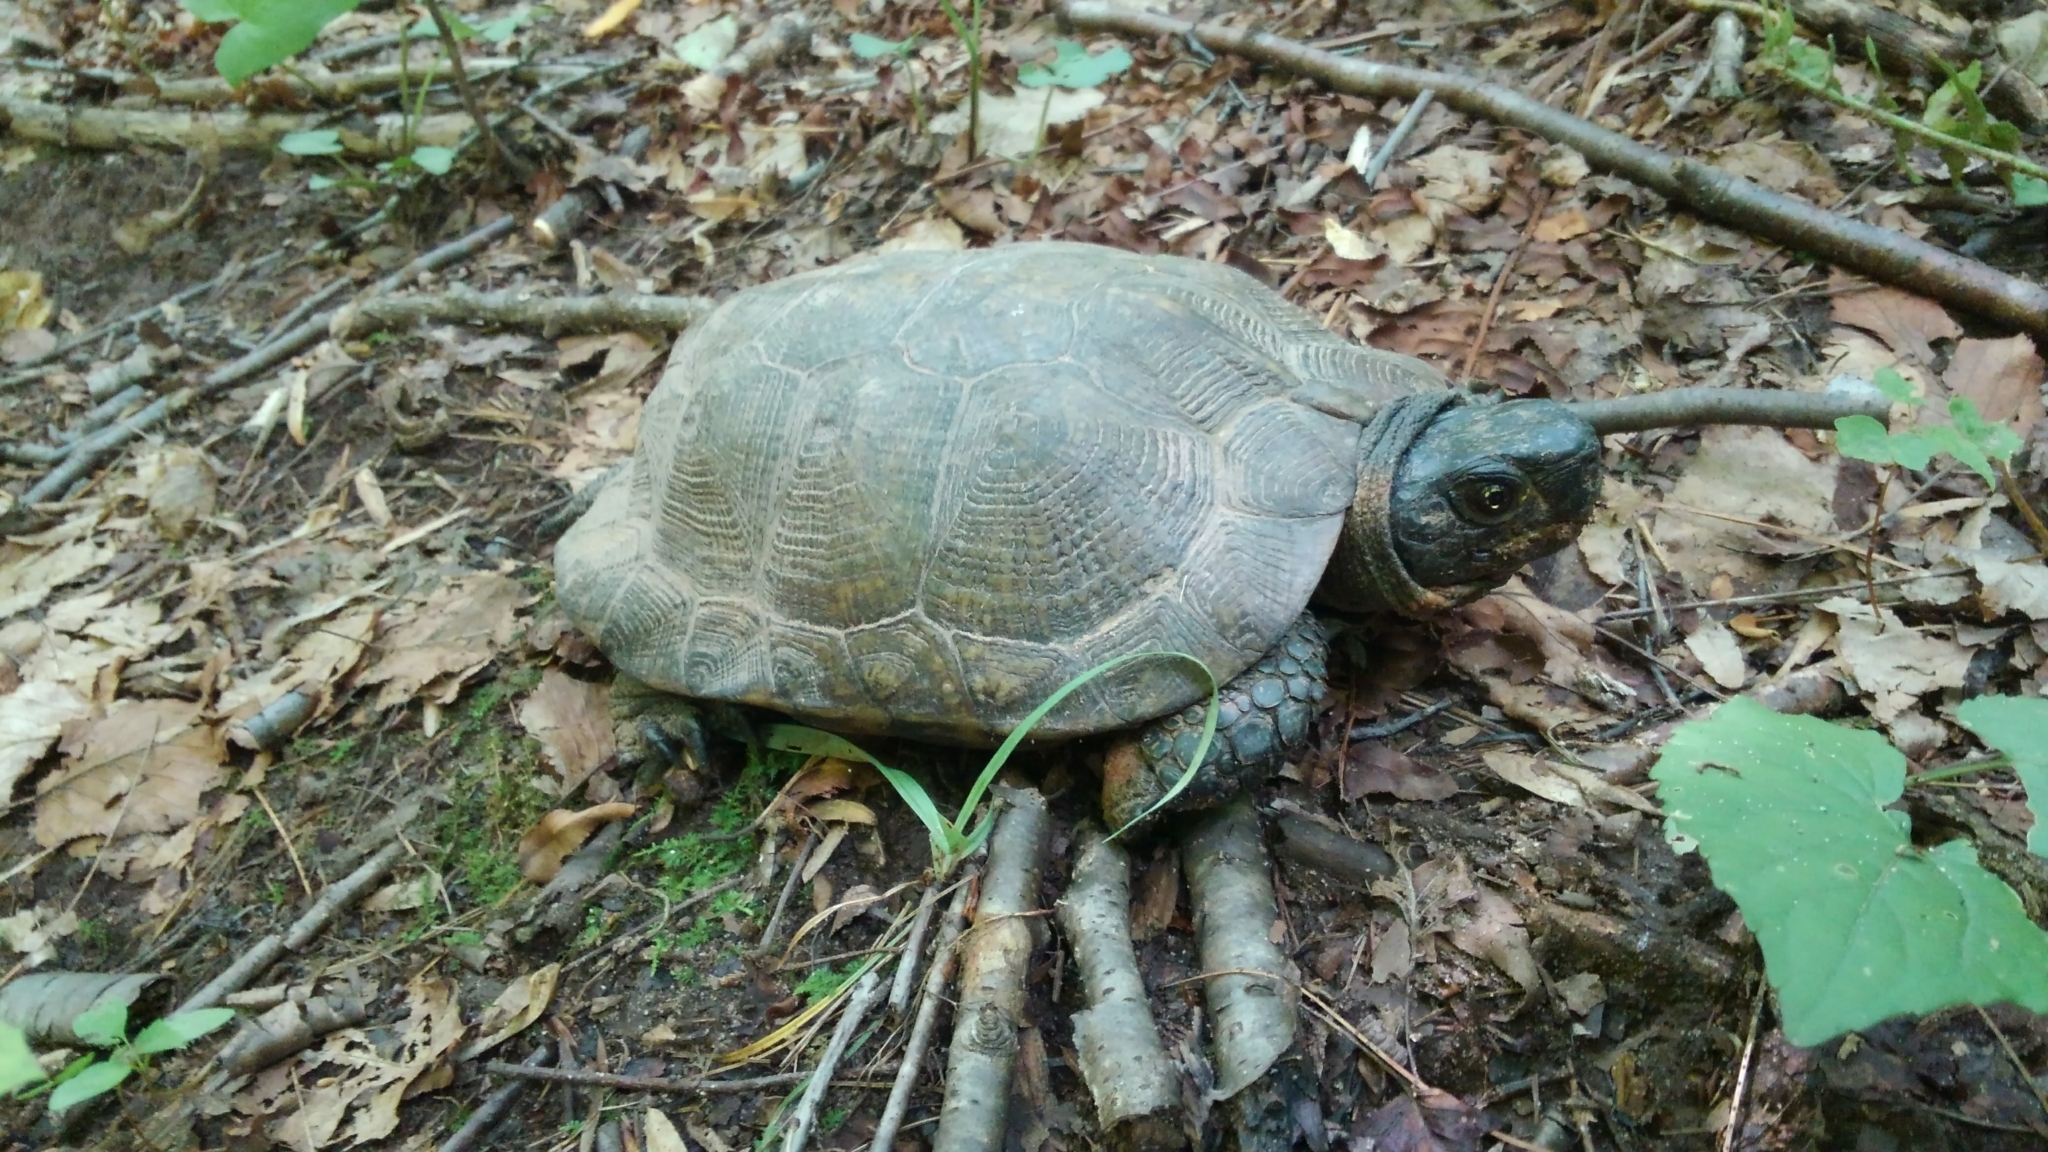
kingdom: Animalia
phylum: Chordata
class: Testudines
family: Emydidae
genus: Glyptemys
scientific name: Glyptemys insculpta
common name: Wood turtle
